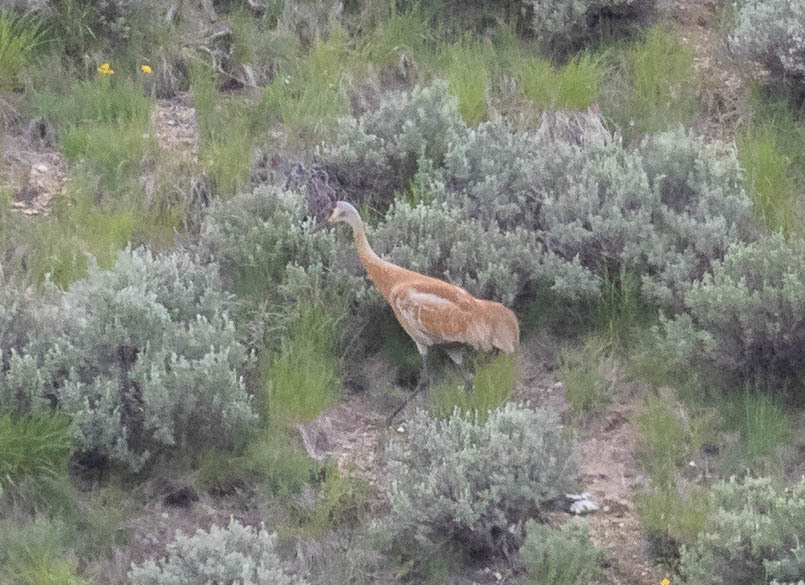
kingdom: Animalia
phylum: Chordata
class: Aves
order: Gruiformes
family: Gruidae
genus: Grus
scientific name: Grus canadensis
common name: Sandhill crane
